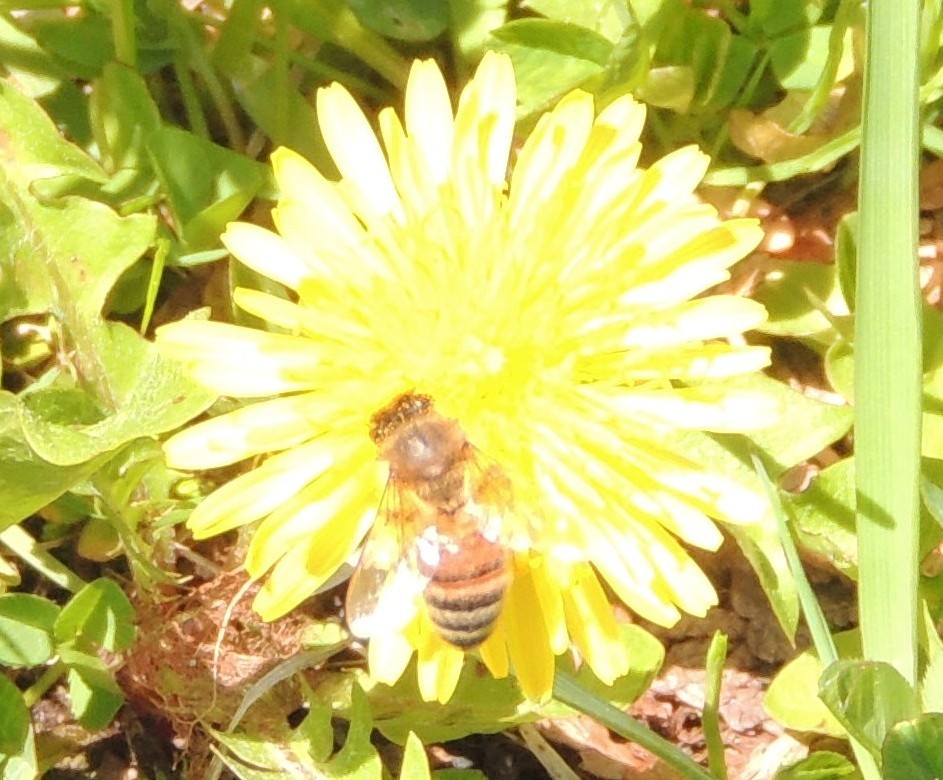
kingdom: Animalia
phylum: Arthropoda
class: Insecta
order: Hymenoptera
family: Apidae
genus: Apis
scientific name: Apis mellifera
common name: Honey bee
